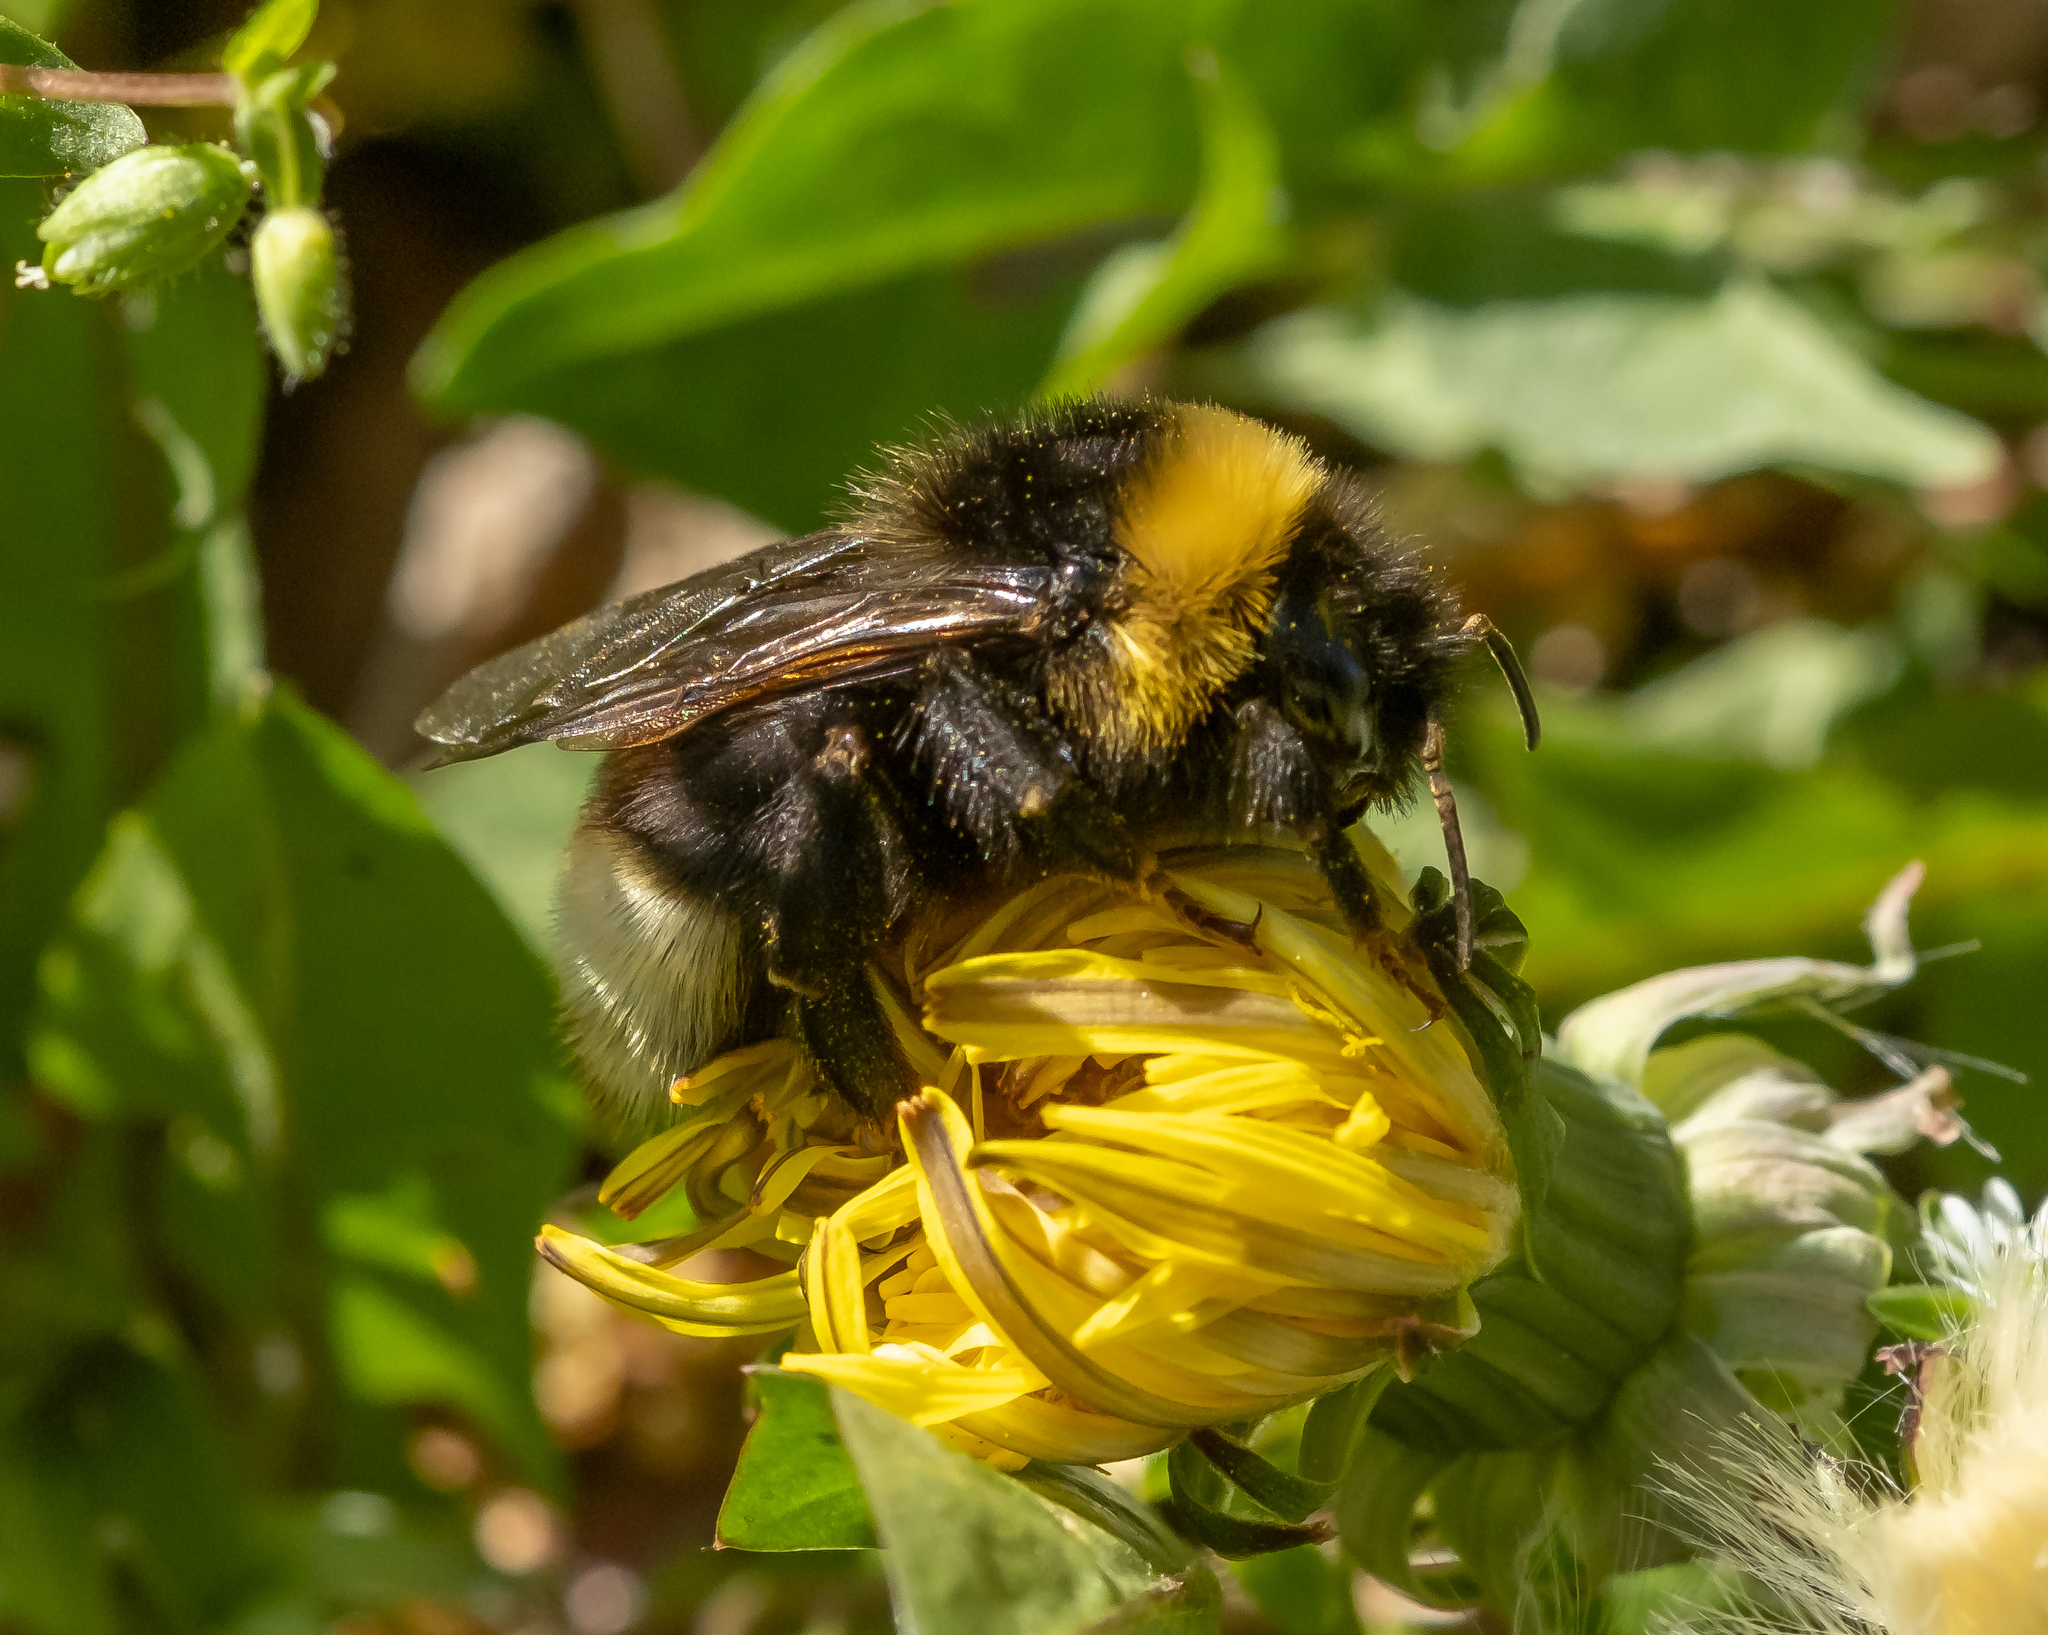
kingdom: Animalia
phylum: Arthropoda
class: Insecta
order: Hymenoptera
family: Apidae
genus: Bombus
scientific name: Bombus bohemicus
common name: Gypsy cuckoo bee
